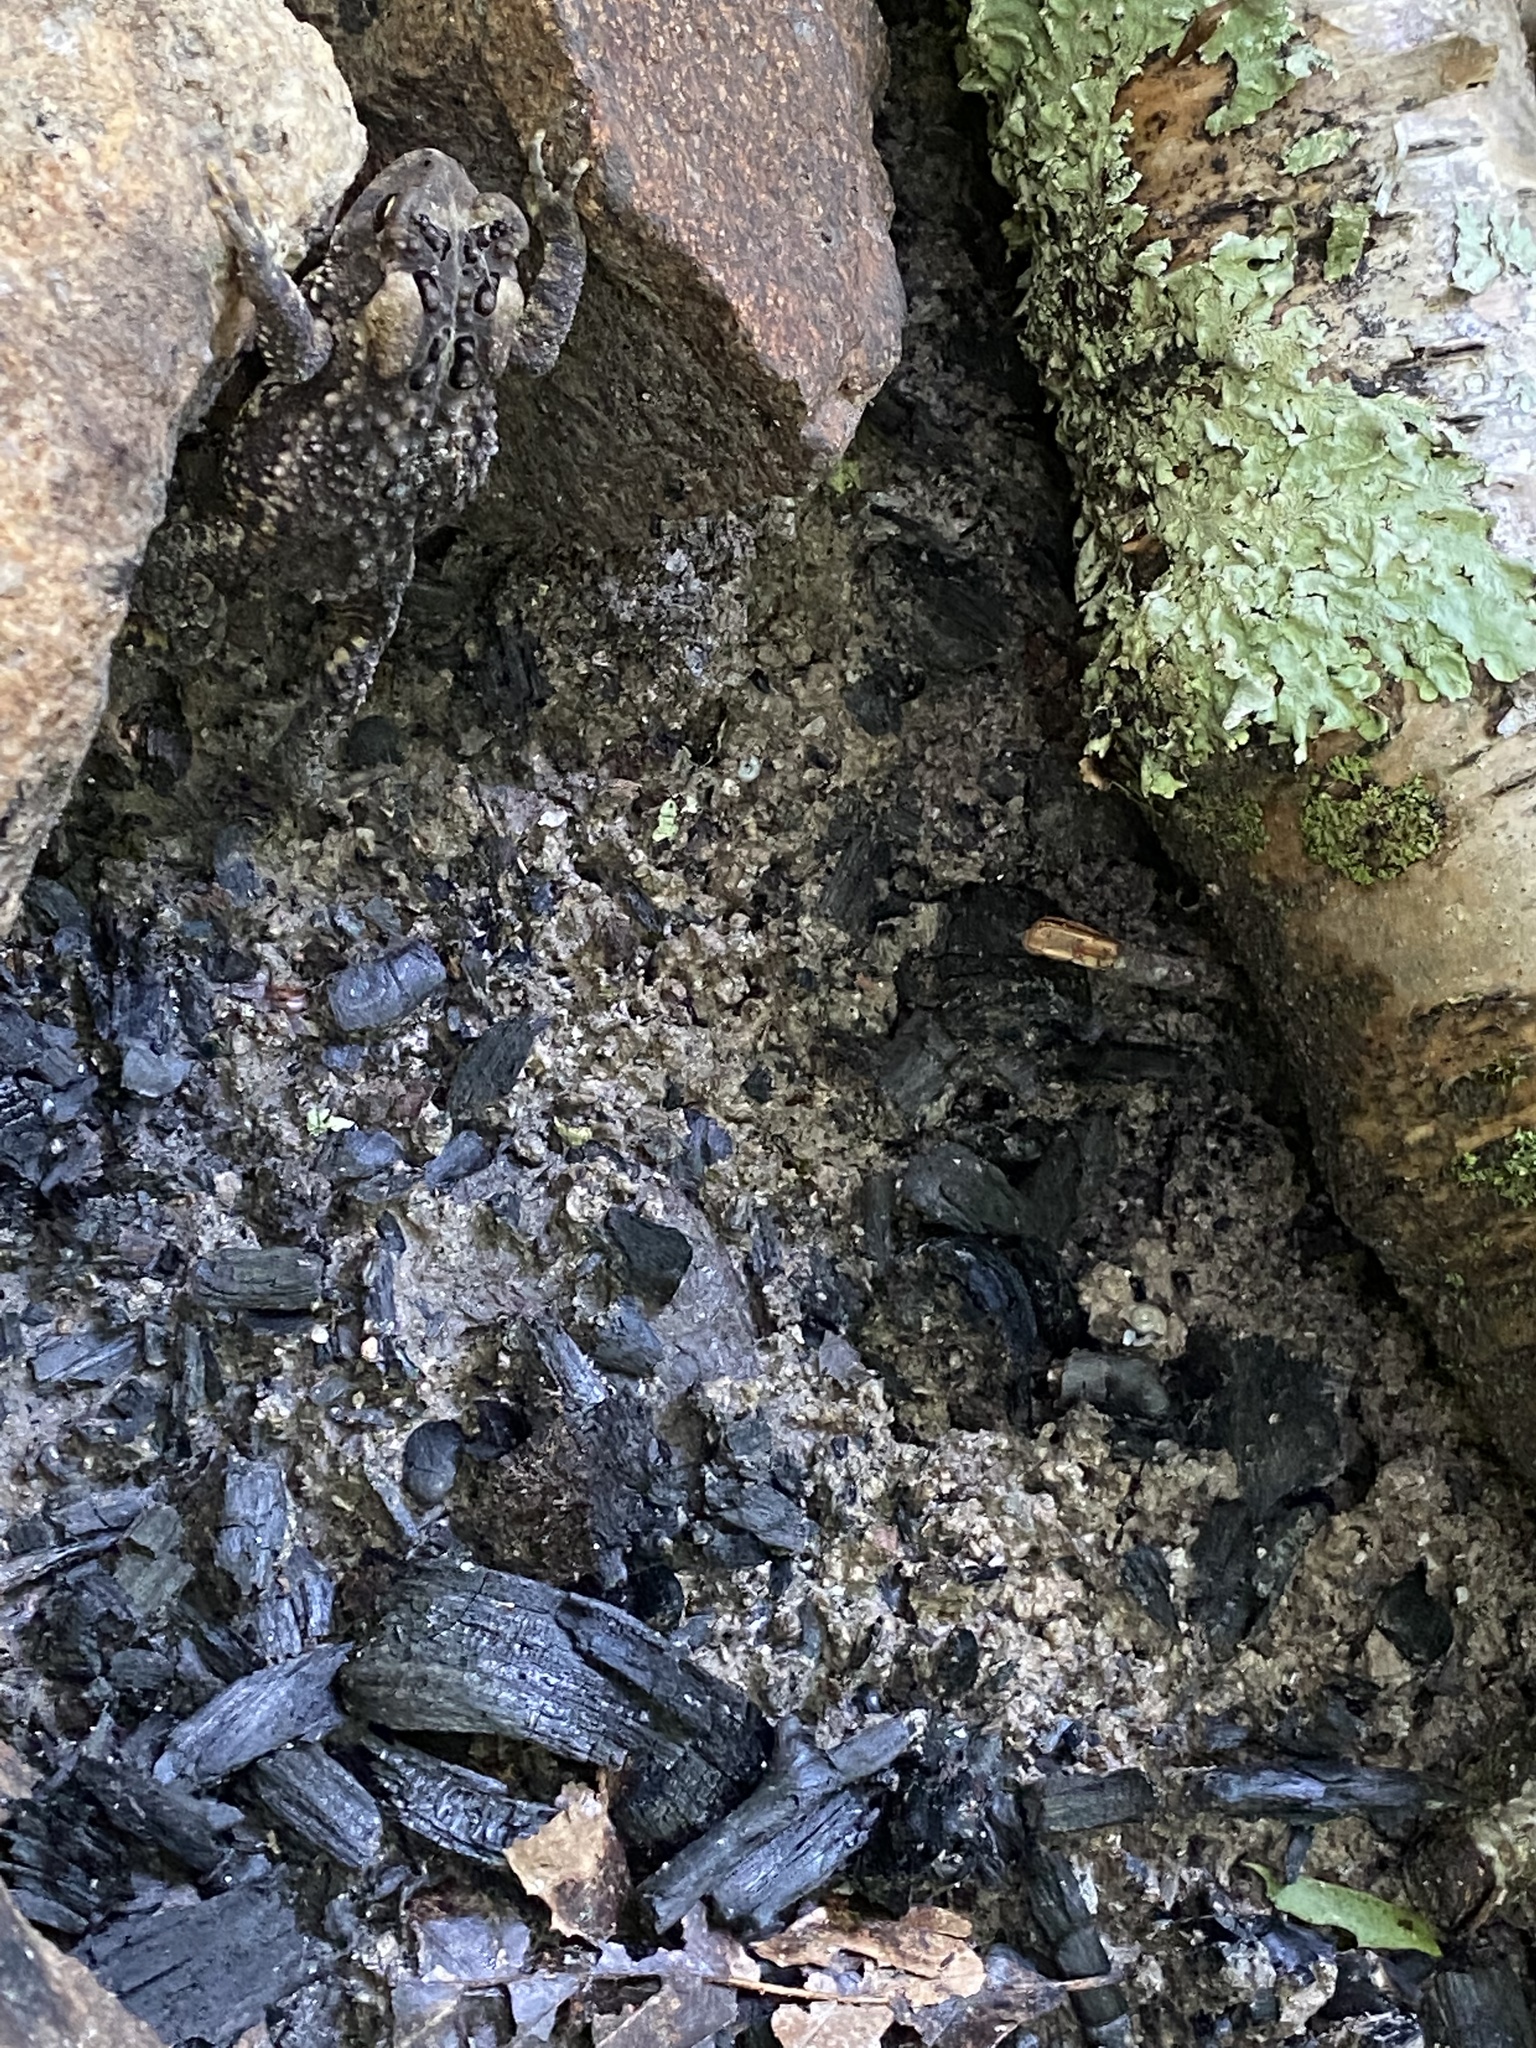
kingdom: Animalia
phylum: Chordata
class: Amphibia
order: Anura
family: Bufonidae
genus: Anaxyrus
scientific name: Anaxyrus americanus
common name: American toad
